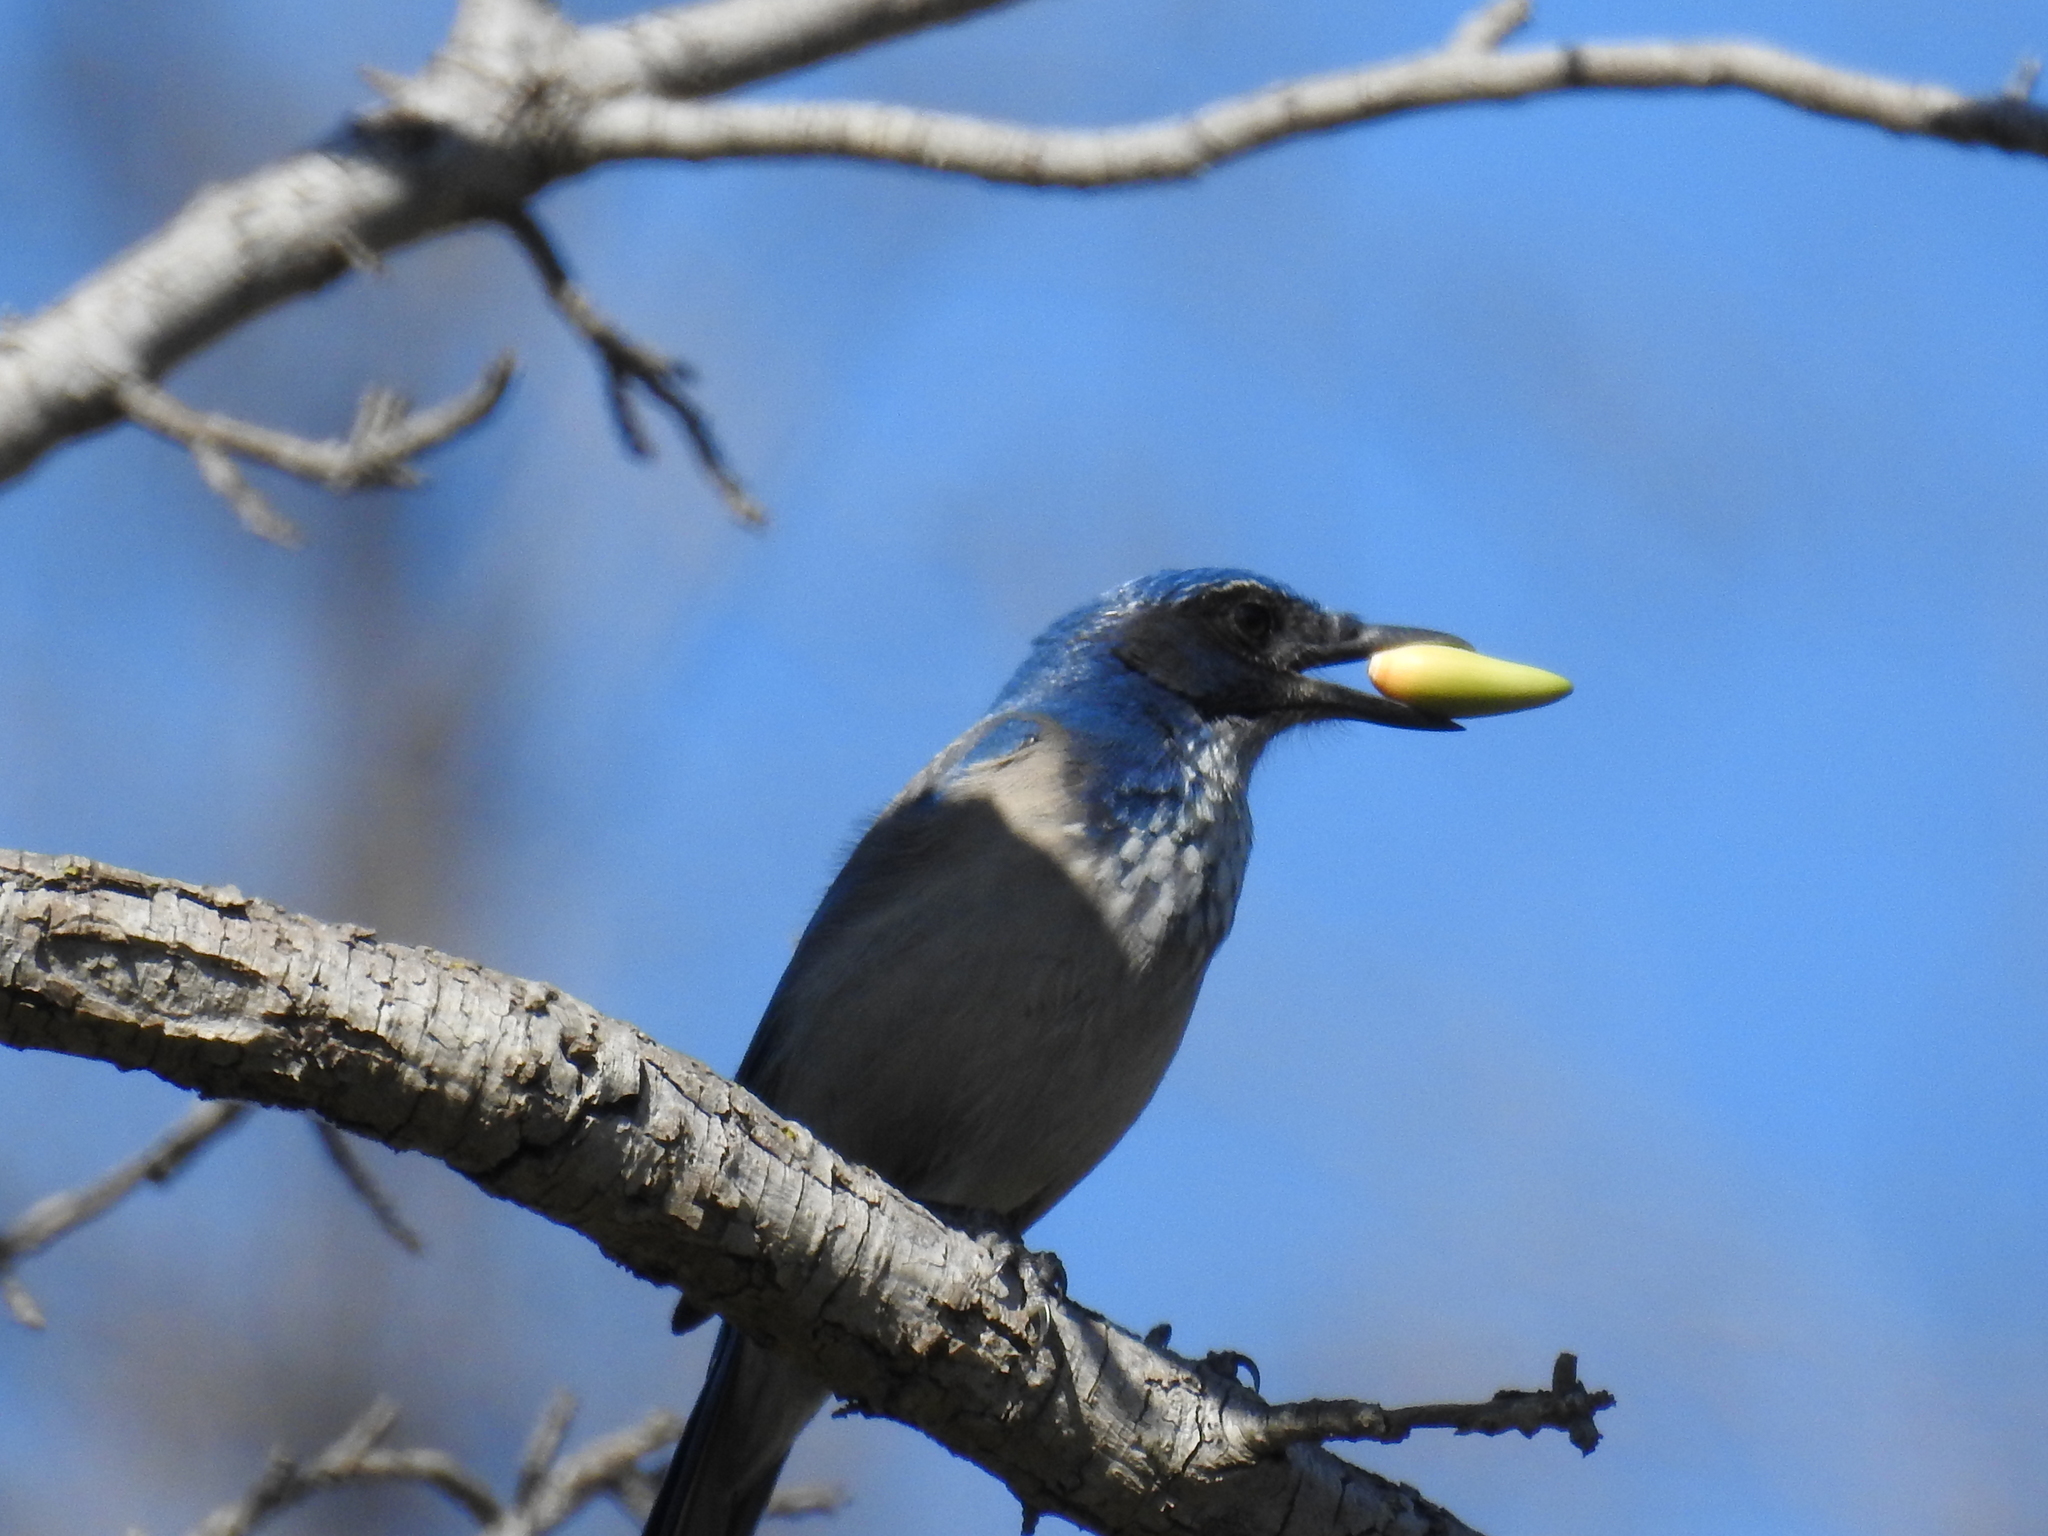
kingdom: Animalia
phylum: Chordata
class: Aves
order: Passeriformes
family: Corvidae
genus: Aphelocoma
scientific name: Aphelocoma californica
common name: California scrub-jay
